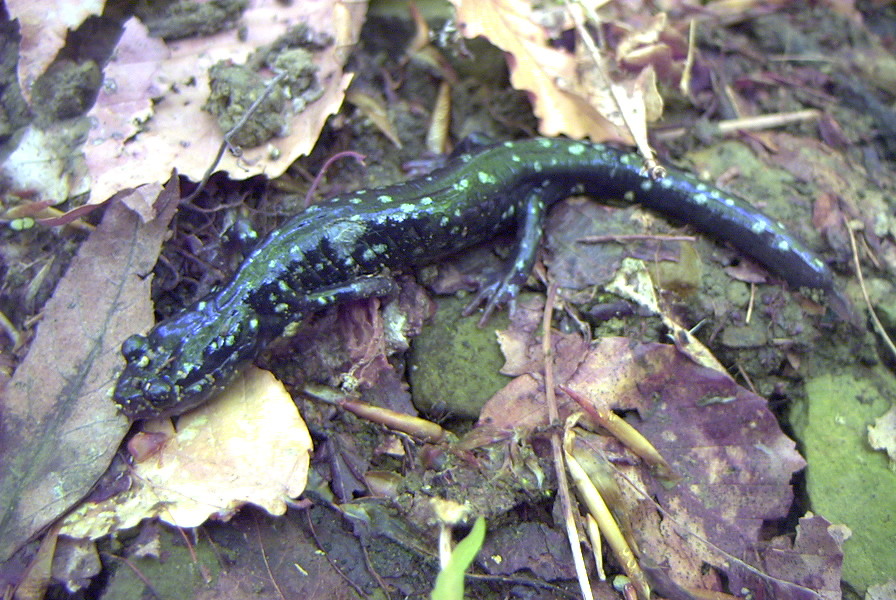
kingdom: Animalia
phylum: Chordata
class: Amphibia
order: Caudata
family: Plethodontidae
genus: Plethodon
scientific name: Plethodon glutinosus
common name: Northern slimy salamander
